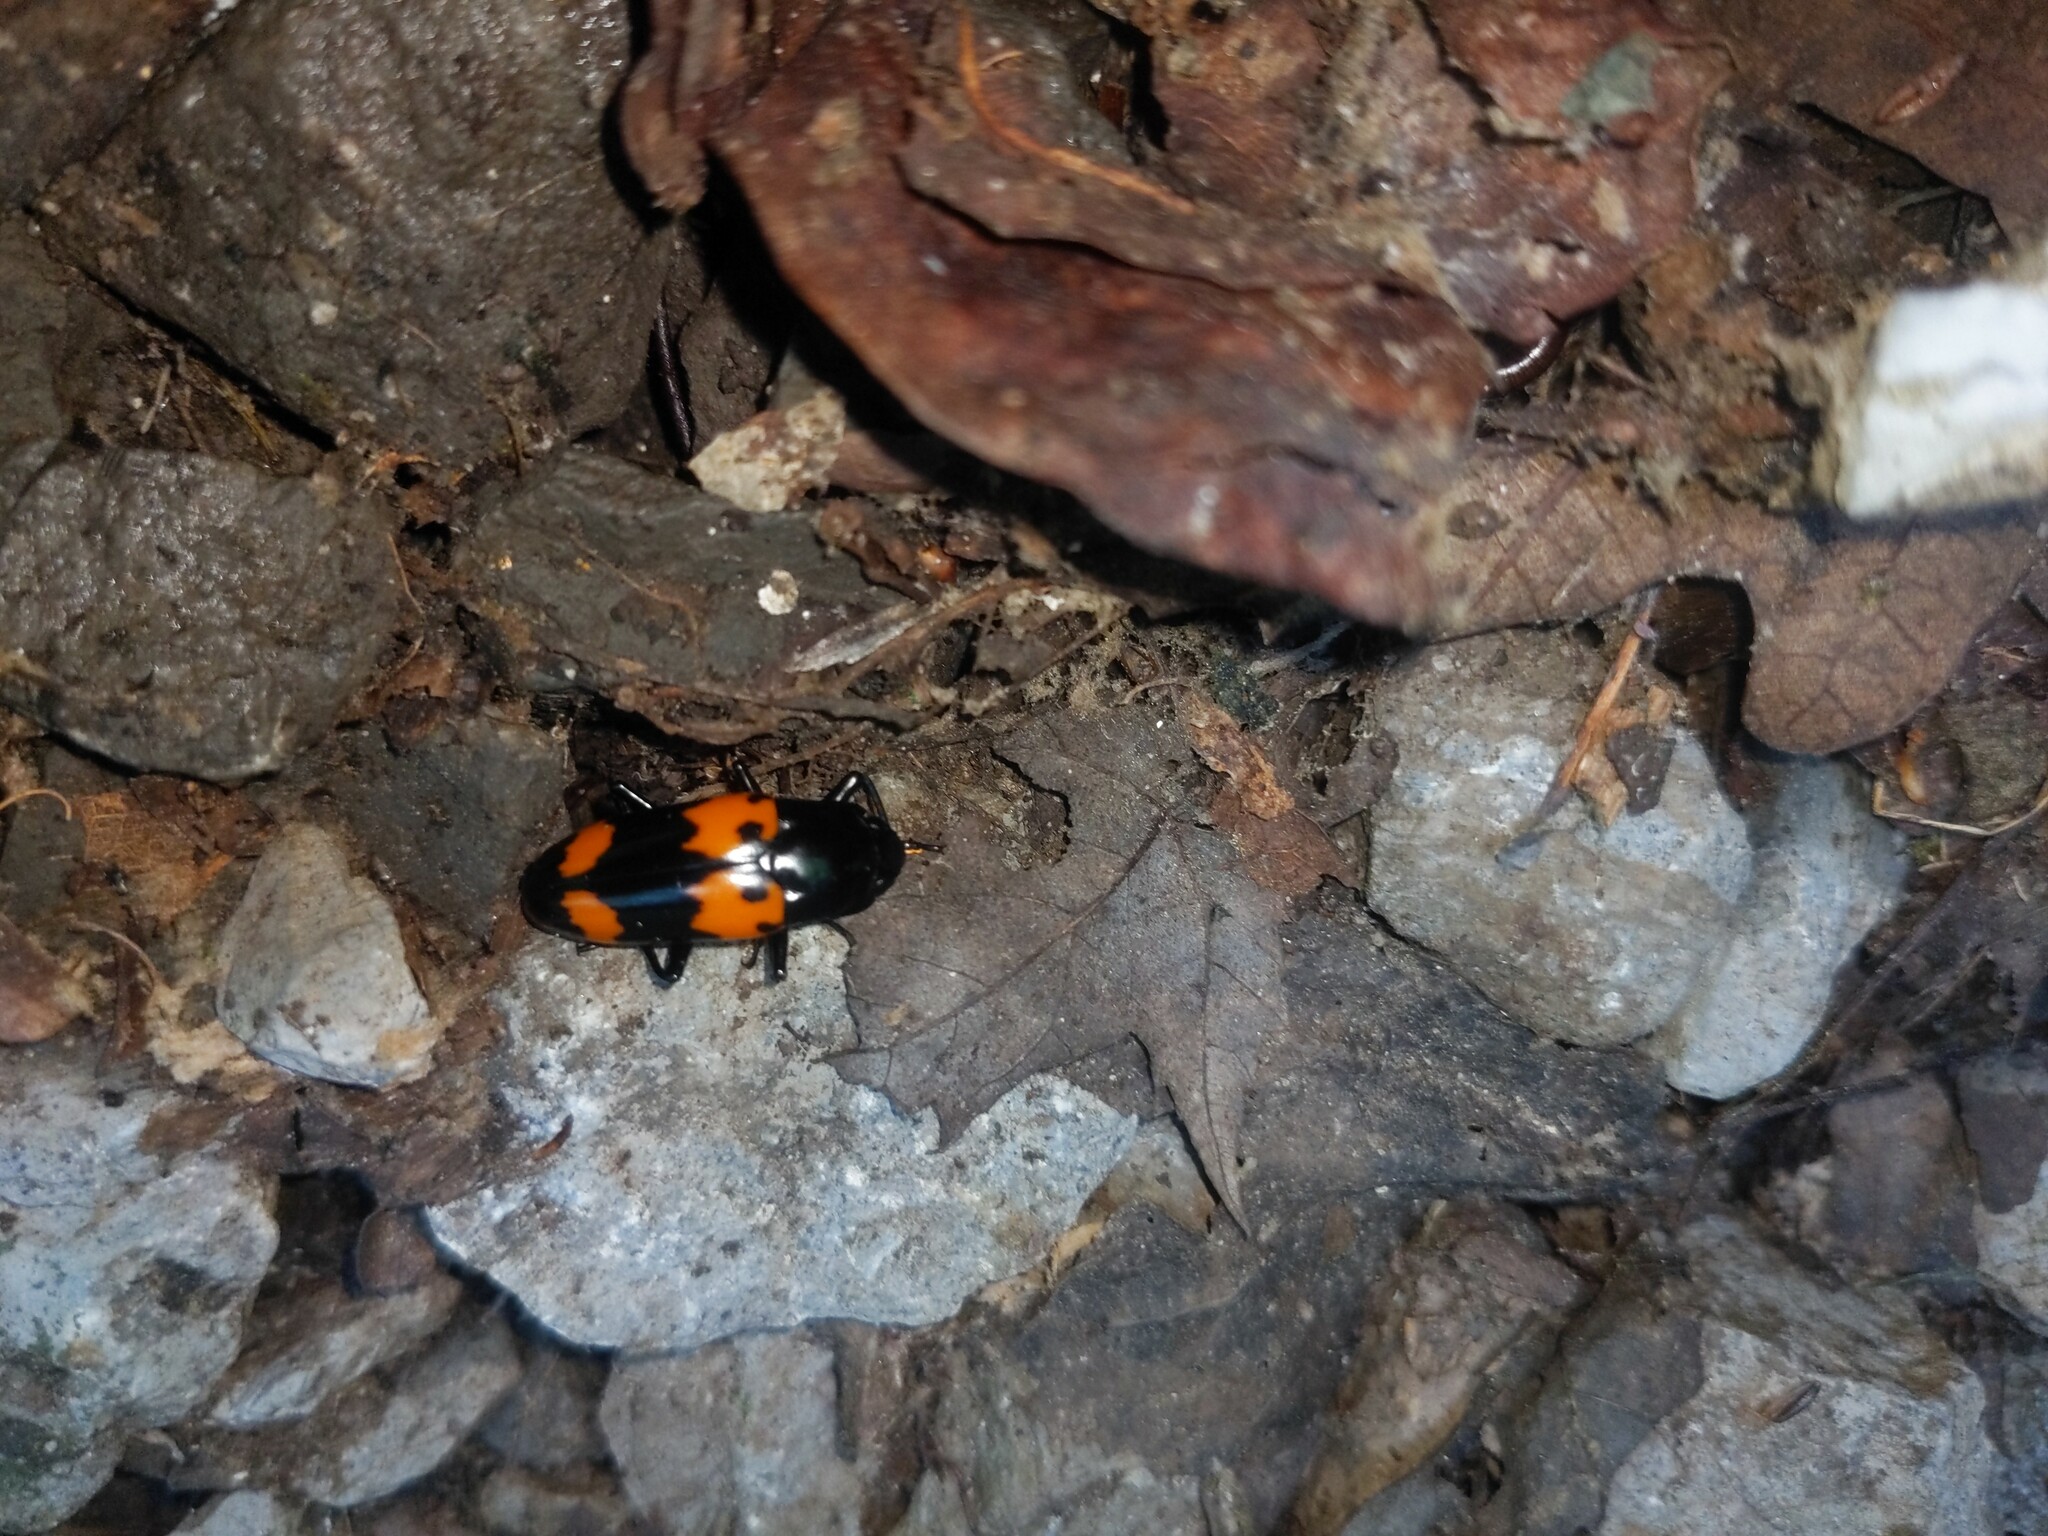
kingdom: Animalia
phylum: Arthropoda
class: Insecta
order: Coleoptera
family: Erotylidae
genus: Megalodacne
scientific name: Megalodacne heros
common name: Pleasing fungus beetle
